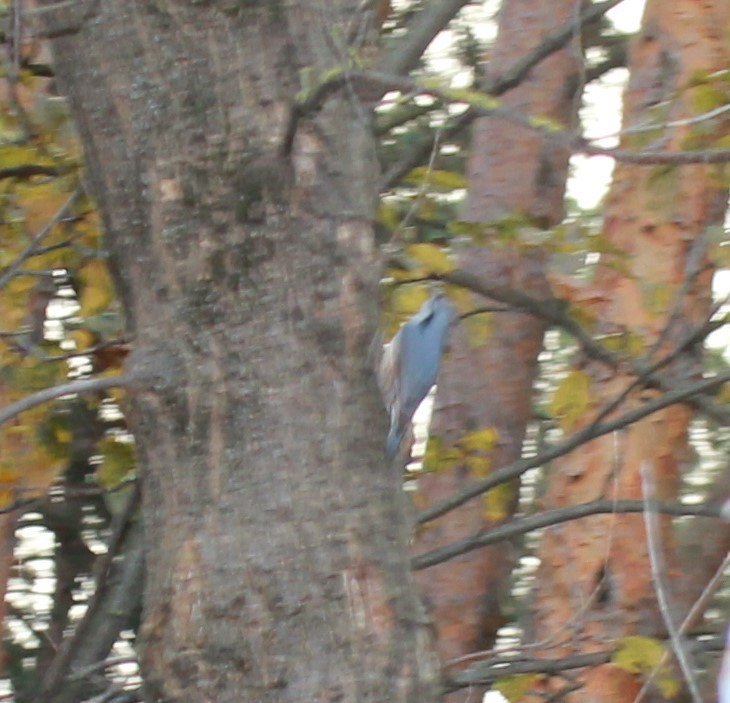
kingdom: Animalia
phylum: Chordata
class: Aves
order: Passeriformes
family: Sittidae
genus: Sitta
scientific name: Sitta europaea
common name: Eurasian nuthatch
